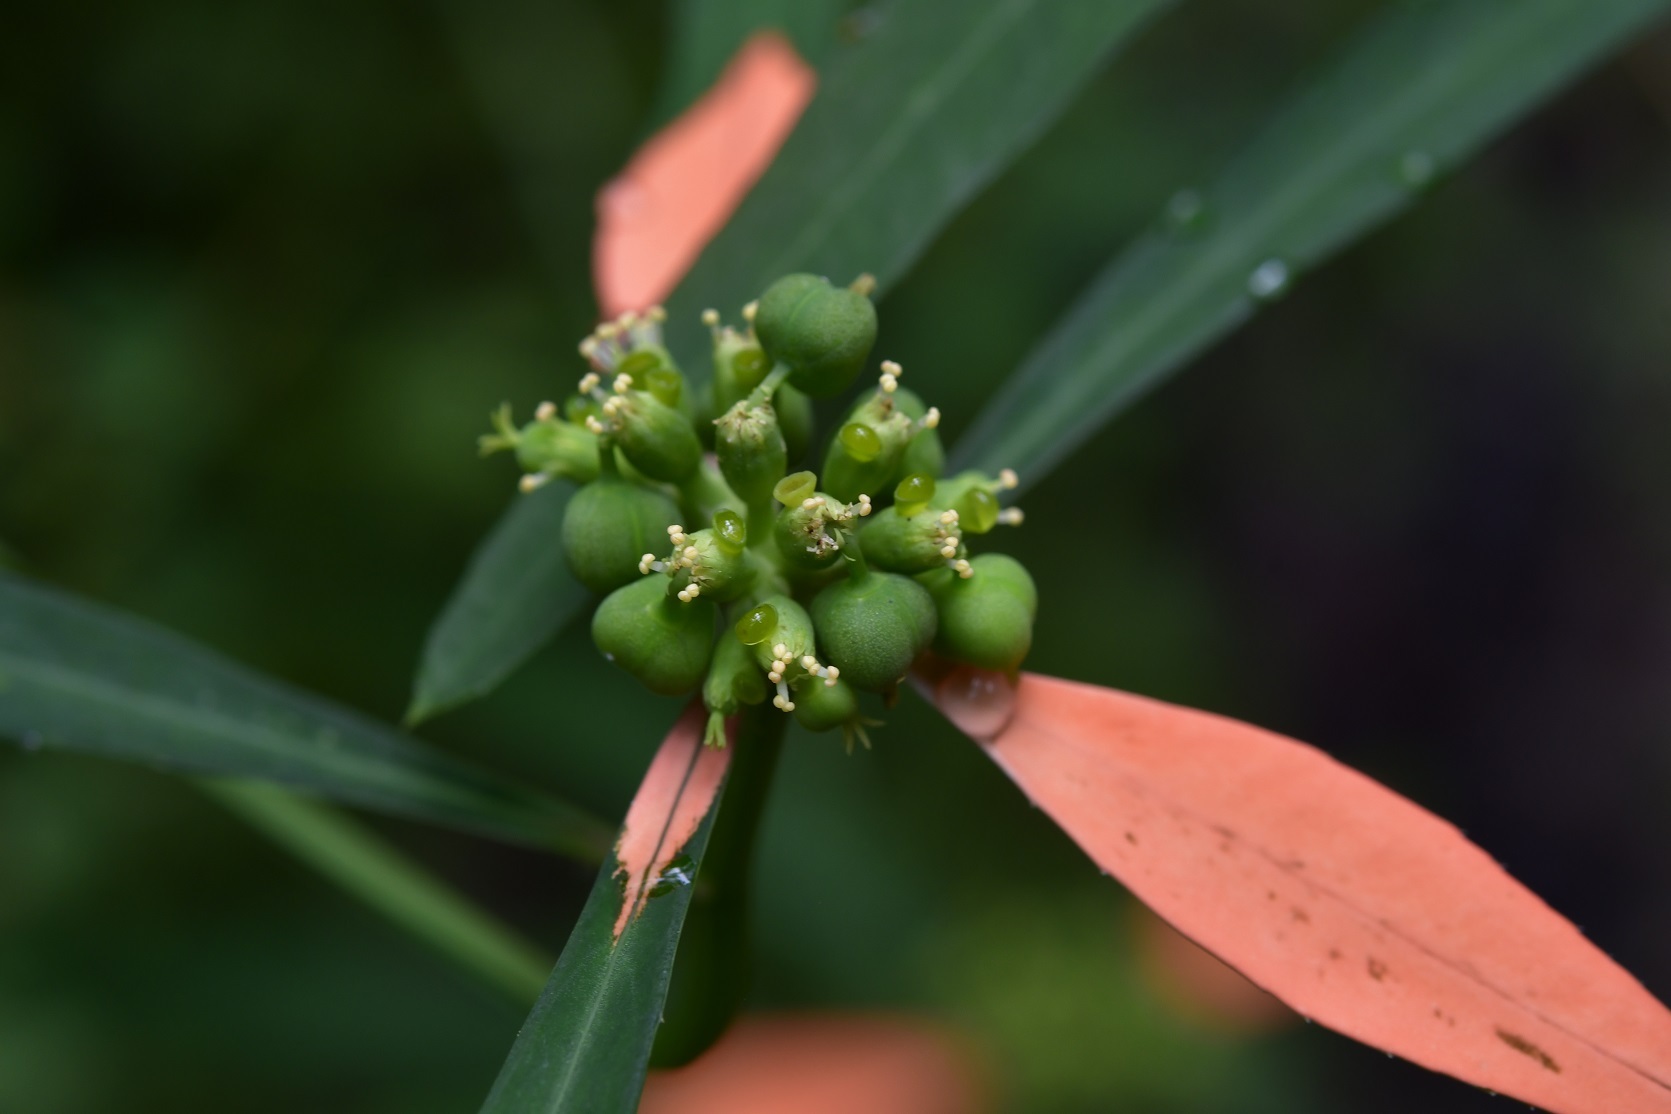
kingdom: Plantae
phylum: Tracheophyta
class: Magnoliopsida
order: Malpighiales
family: Euphorbiaceae
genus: Euphorbia
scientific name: Euphorbia heterophylla
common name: Mexican fireplant
